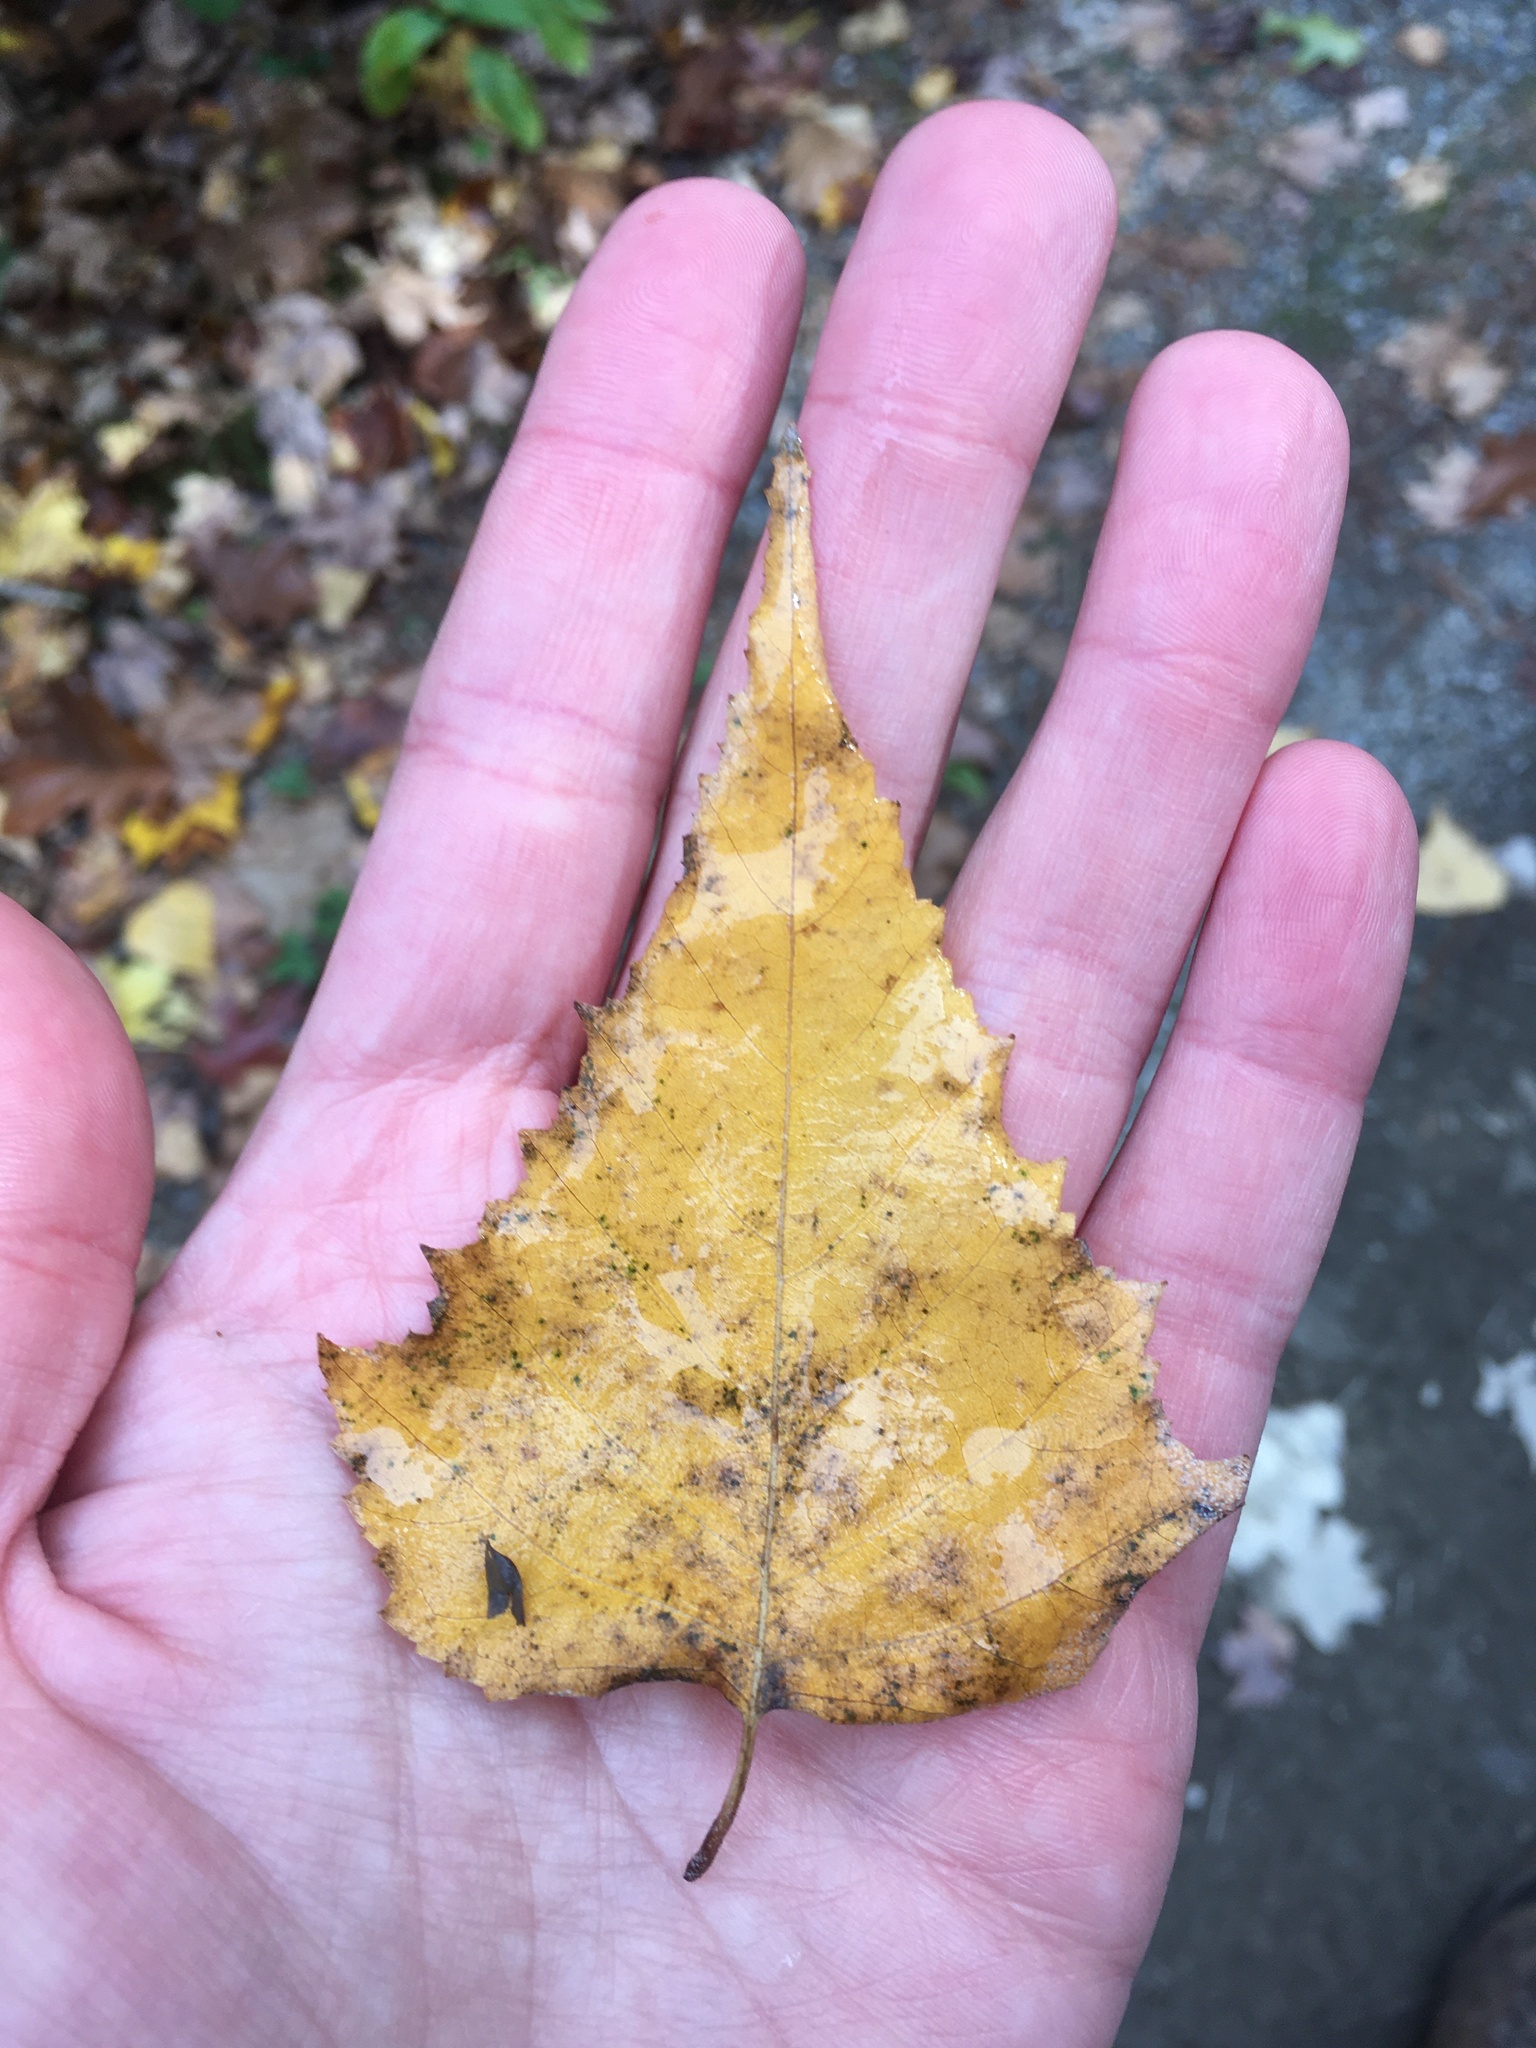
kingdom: Plantae
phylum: Tracheophyta
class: Magnoliopsida
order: Fagales
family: Betulaceae
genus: Betula
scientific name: Betula populifolia
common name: Fire birch
